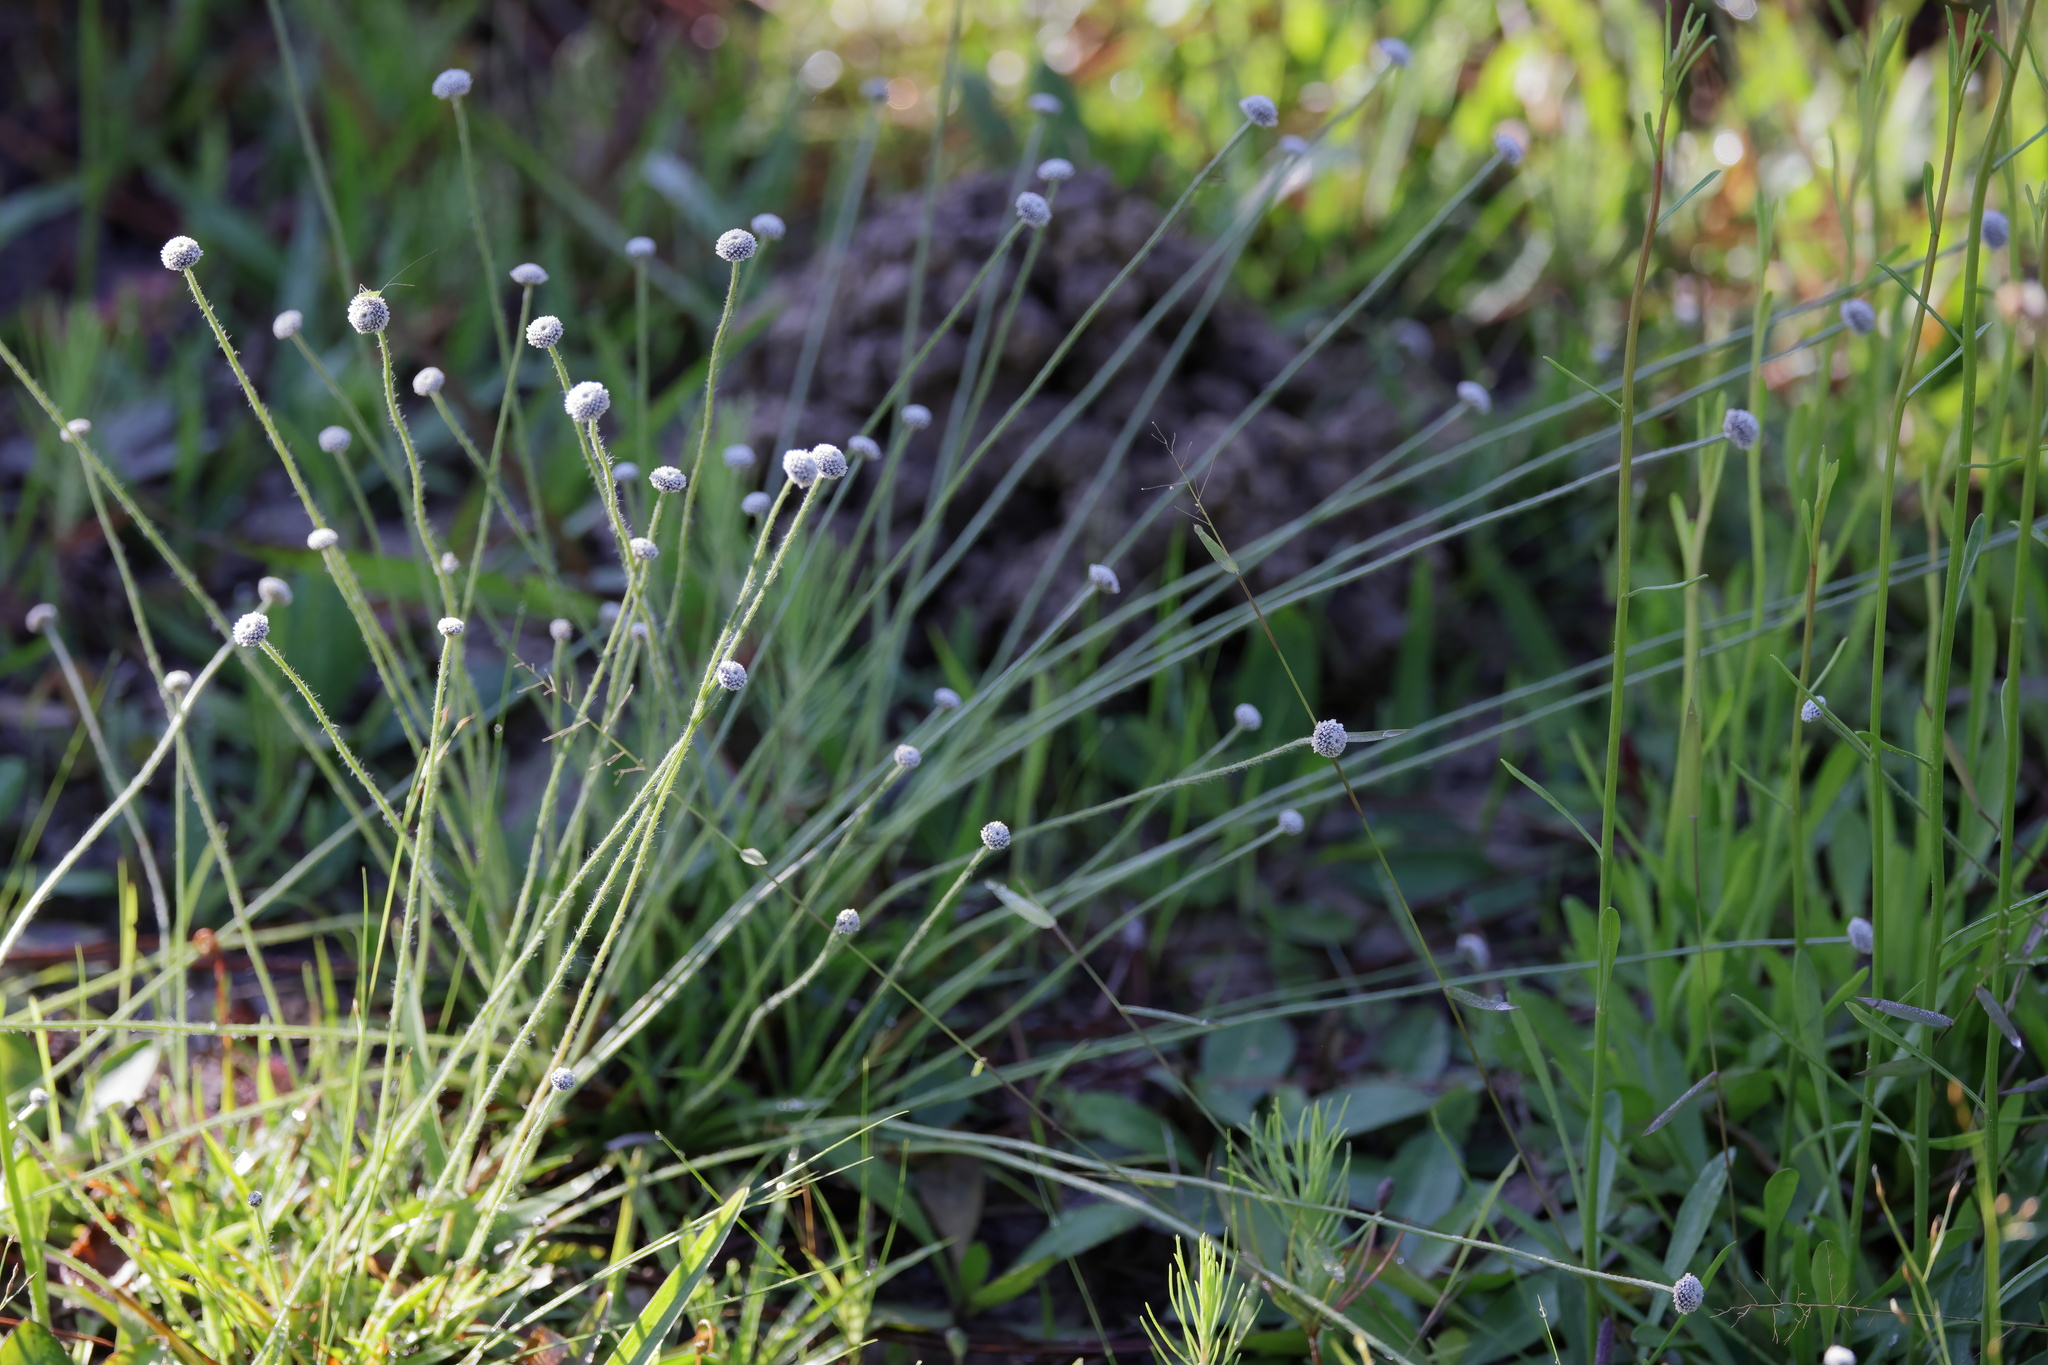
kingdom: Plantae
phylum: Tracheophyta
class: Liliopsida
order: Poales
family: Eriocaulaceae
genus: Paepalanthus
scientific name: Paepalanthus anceps
